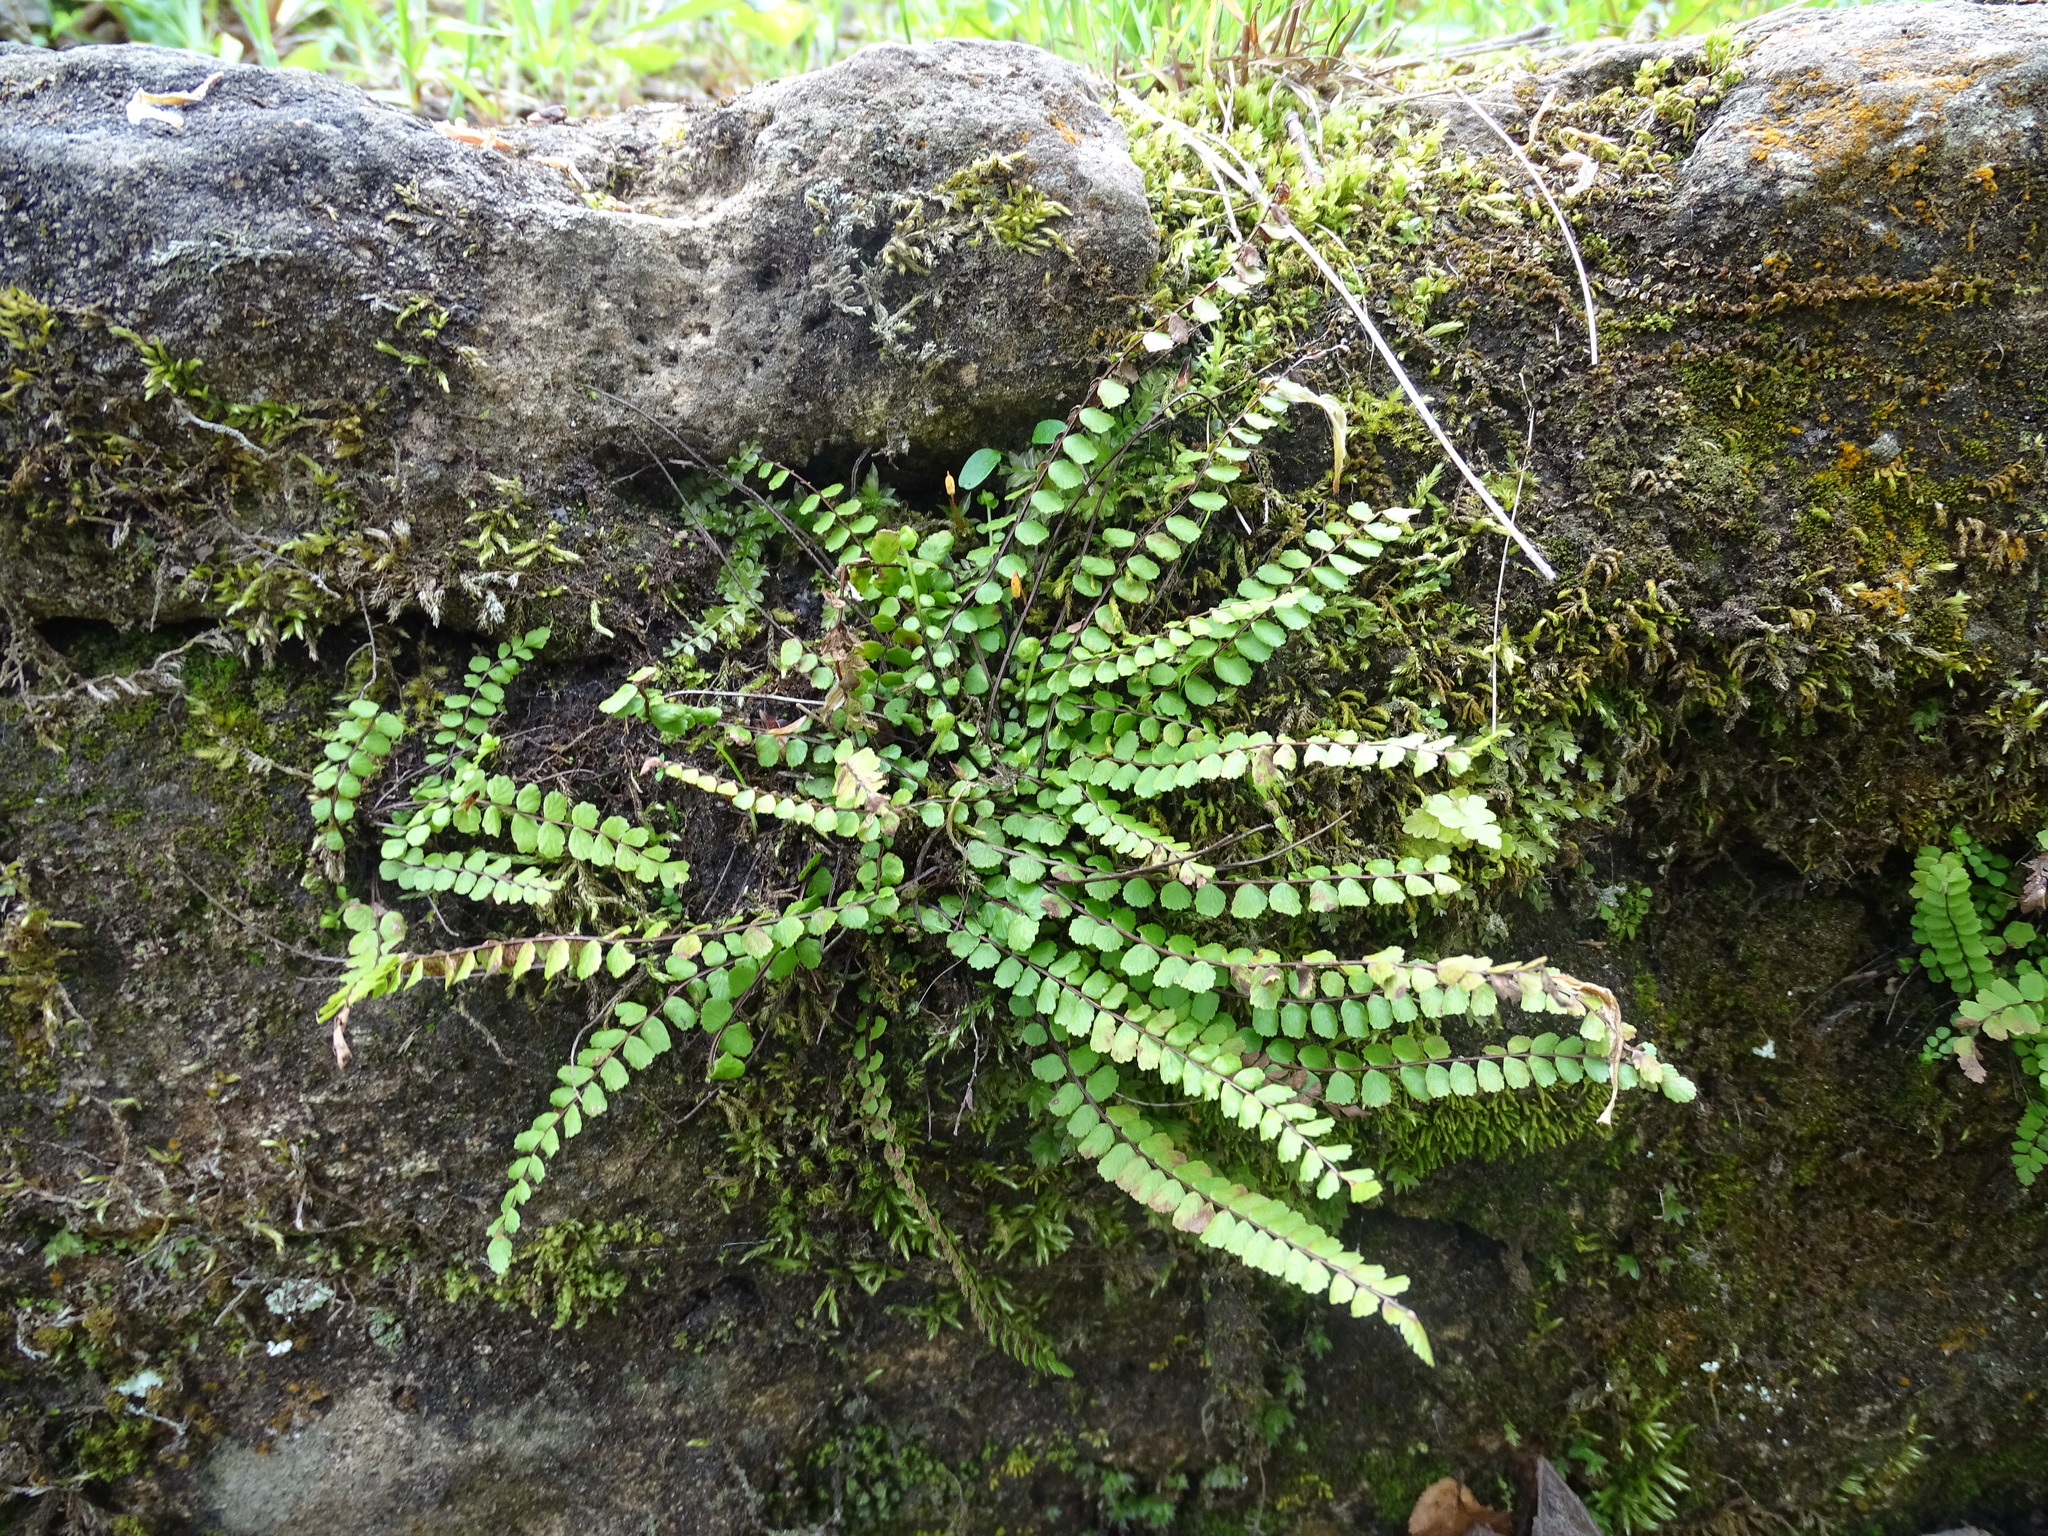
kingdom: Plantae
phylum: Tracheophyta
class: Polypodiopsida
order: Polypodiales
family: Aspleniaceae
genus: Asplenium
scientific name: Asplenium trichomanes
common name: Maidenhair spleenwort
